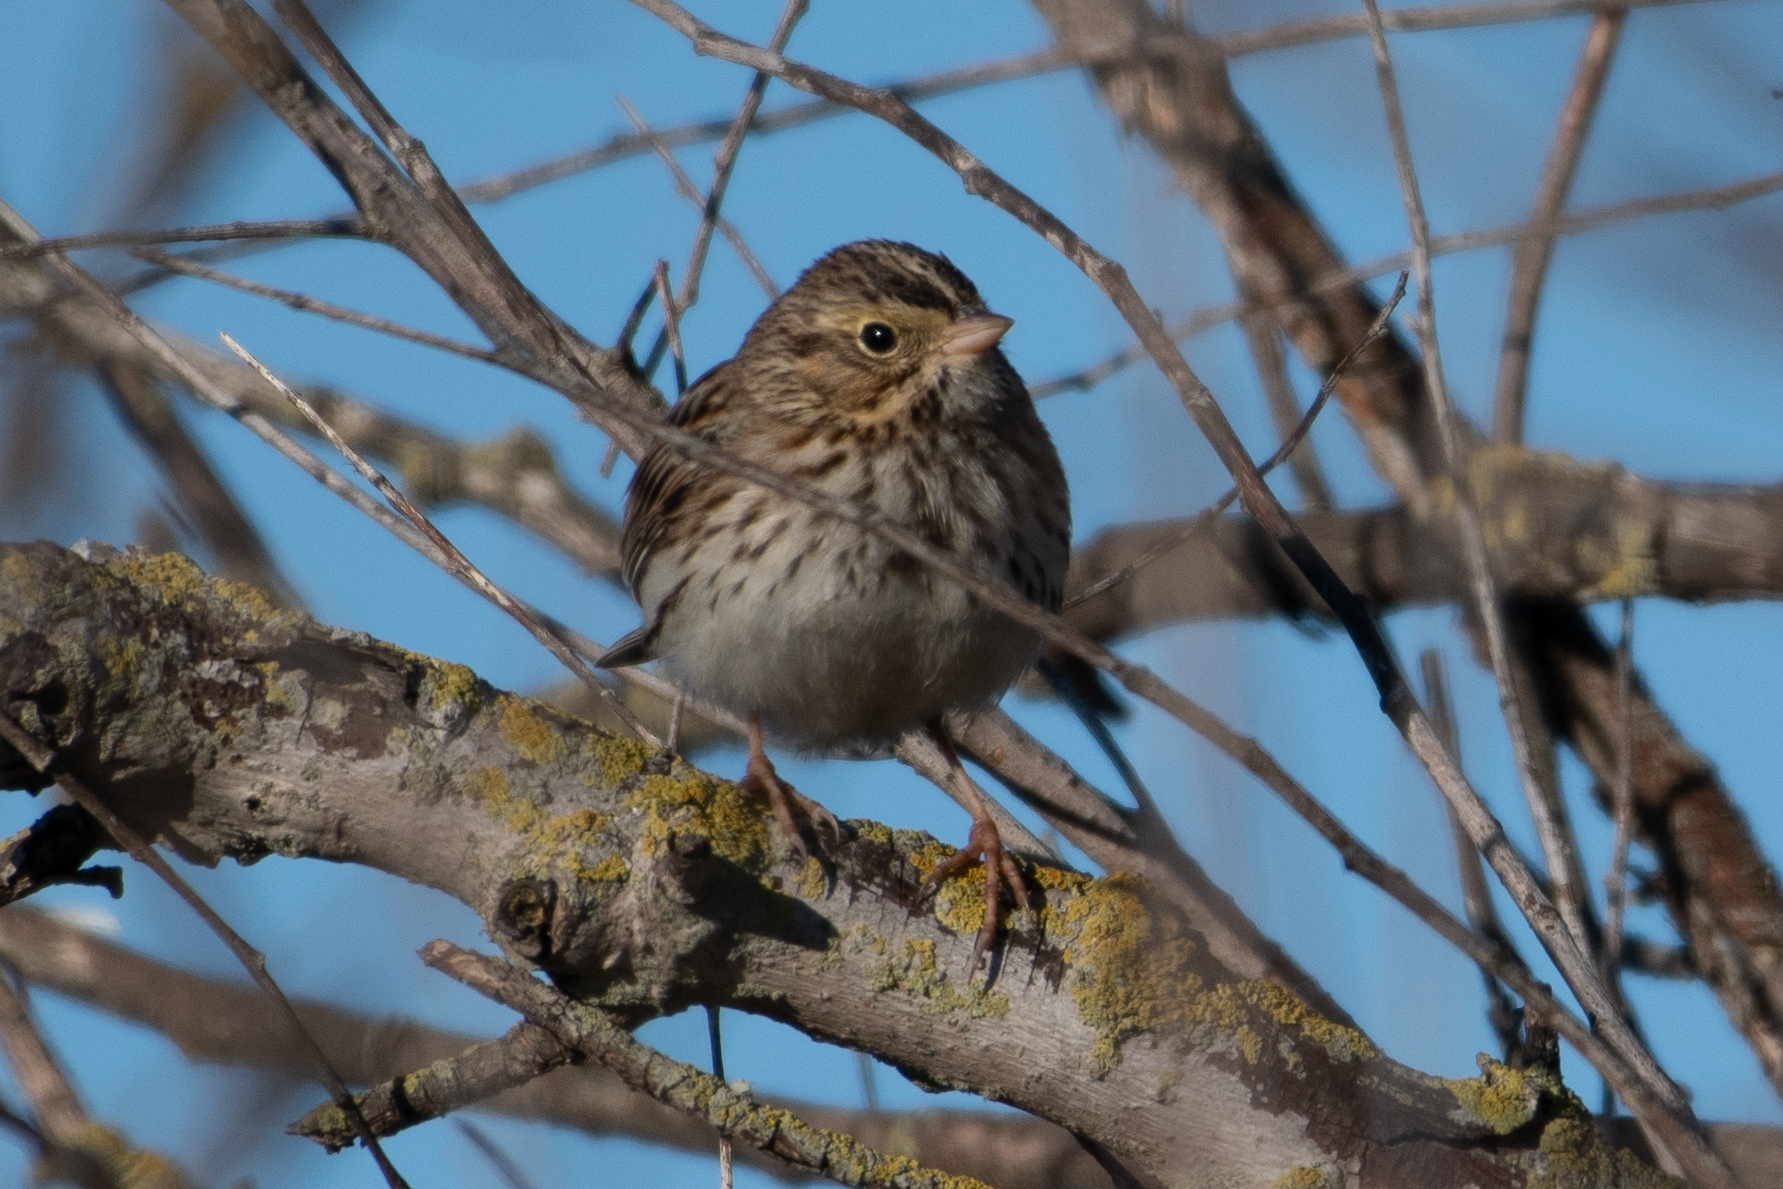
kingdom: Animalia
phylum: Chordata
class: Aves
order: Passeriformes
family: Passerellidae
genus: Passerculus
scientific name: Passerculus sandwichensis
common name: Savannah sparrow
